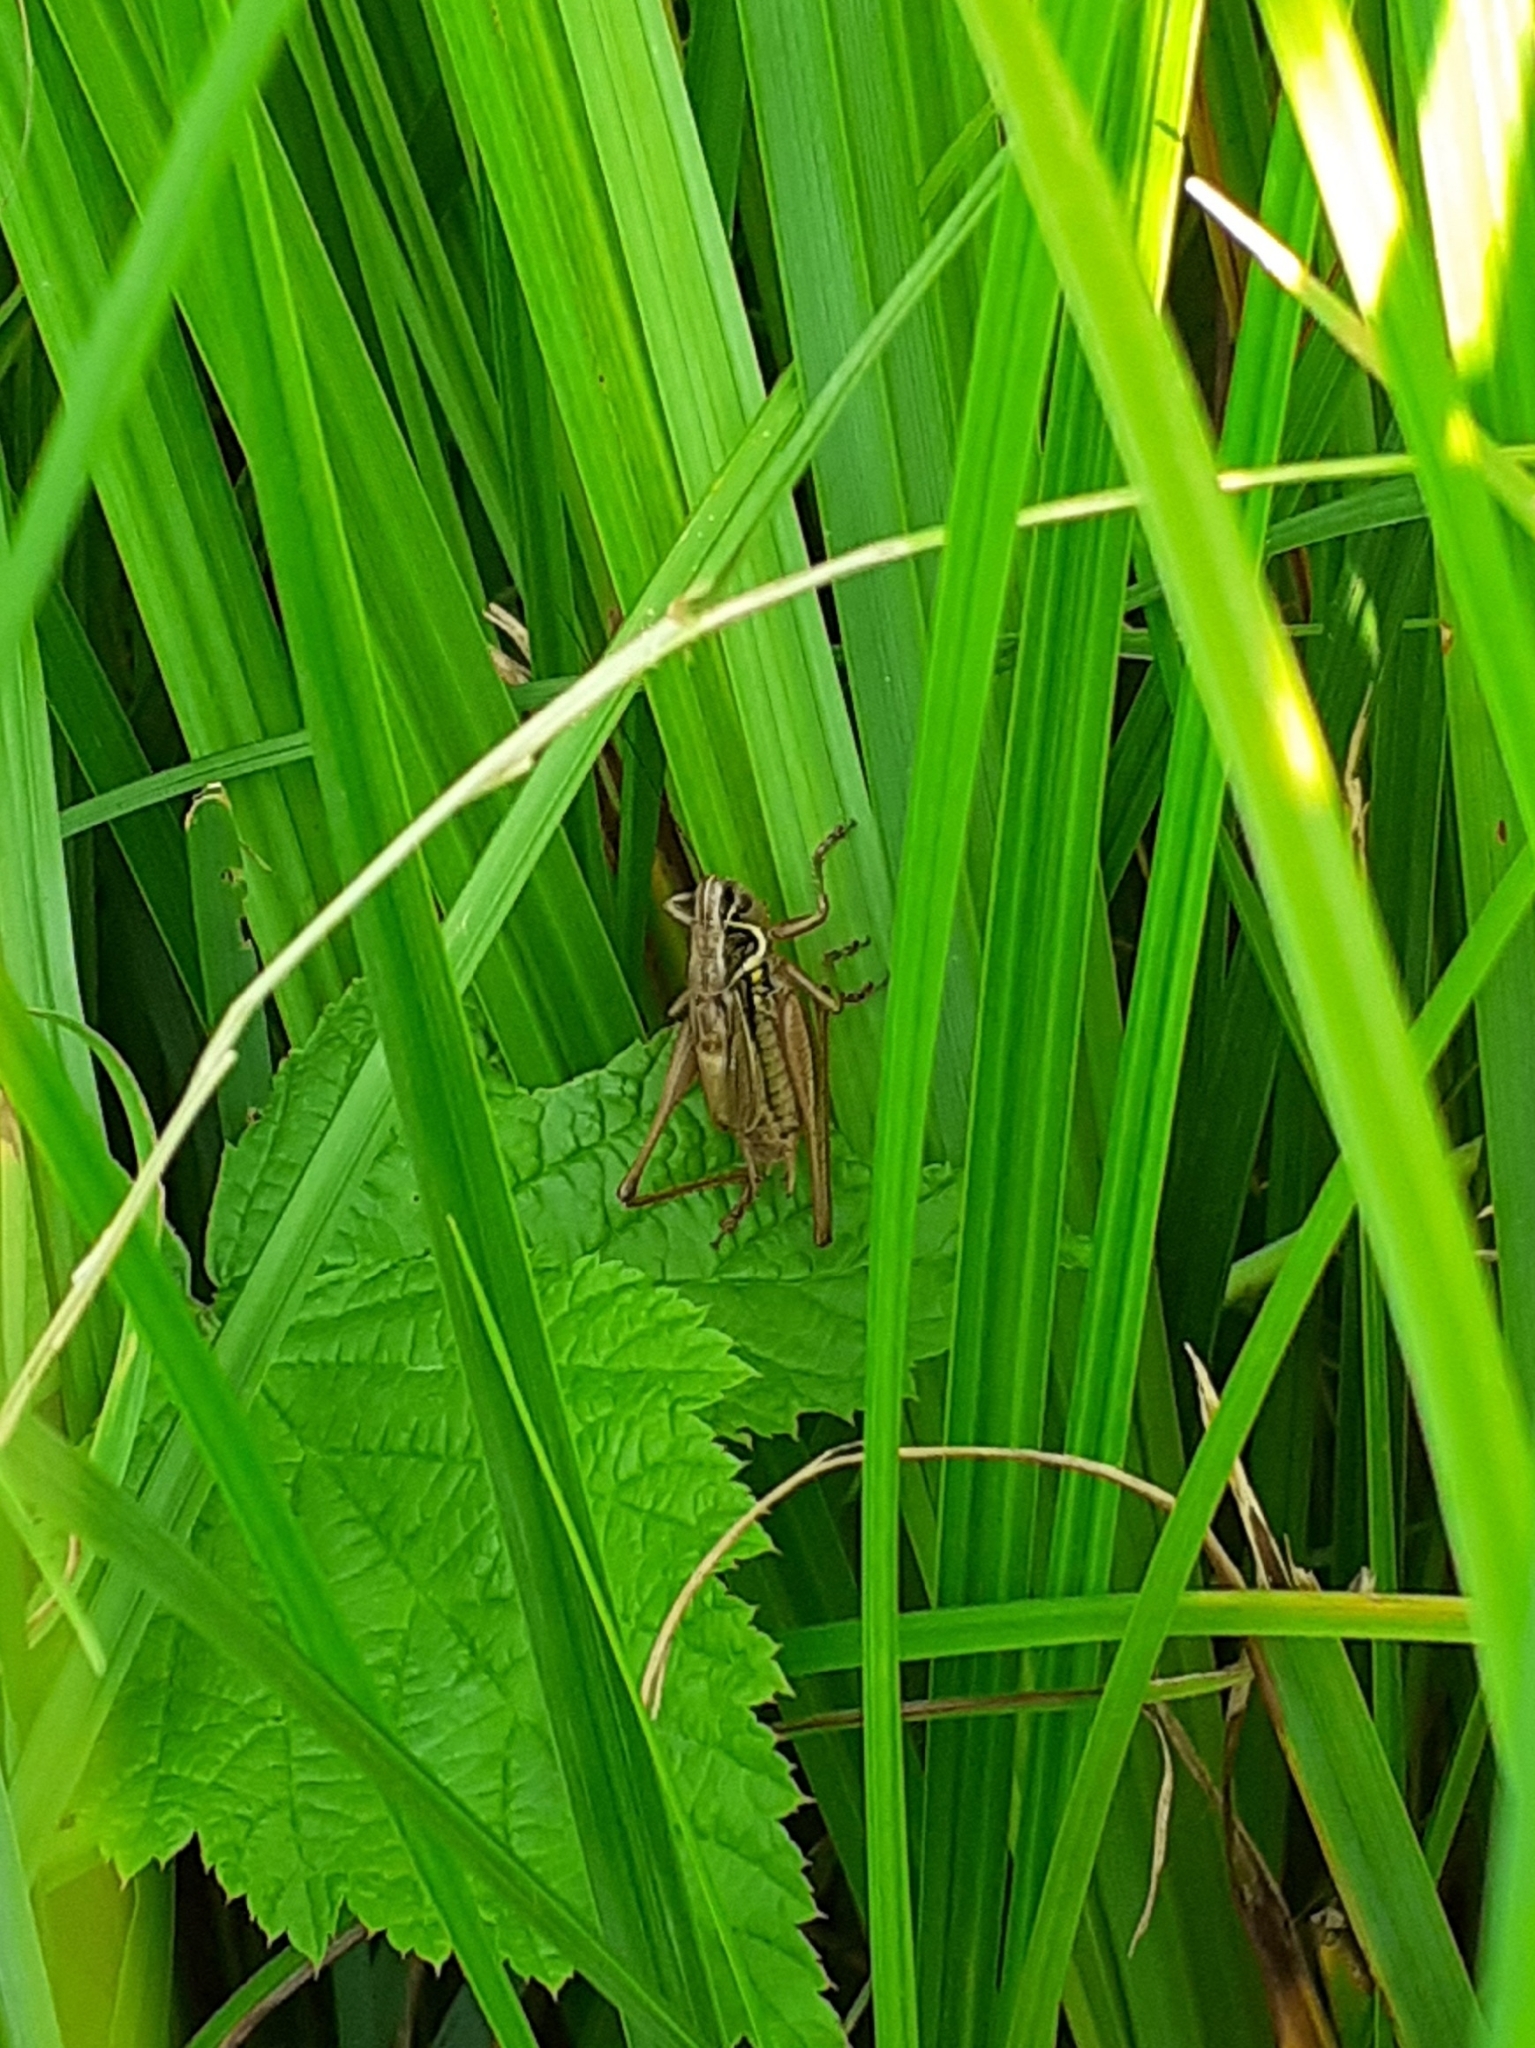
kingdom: Animalia
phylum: Arthropoda
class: Insecta
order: Orthoptera
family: Tettigoniidae
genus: Roeseliana
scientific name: Roeseliana roeselii
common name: Roesel's bush cricket
